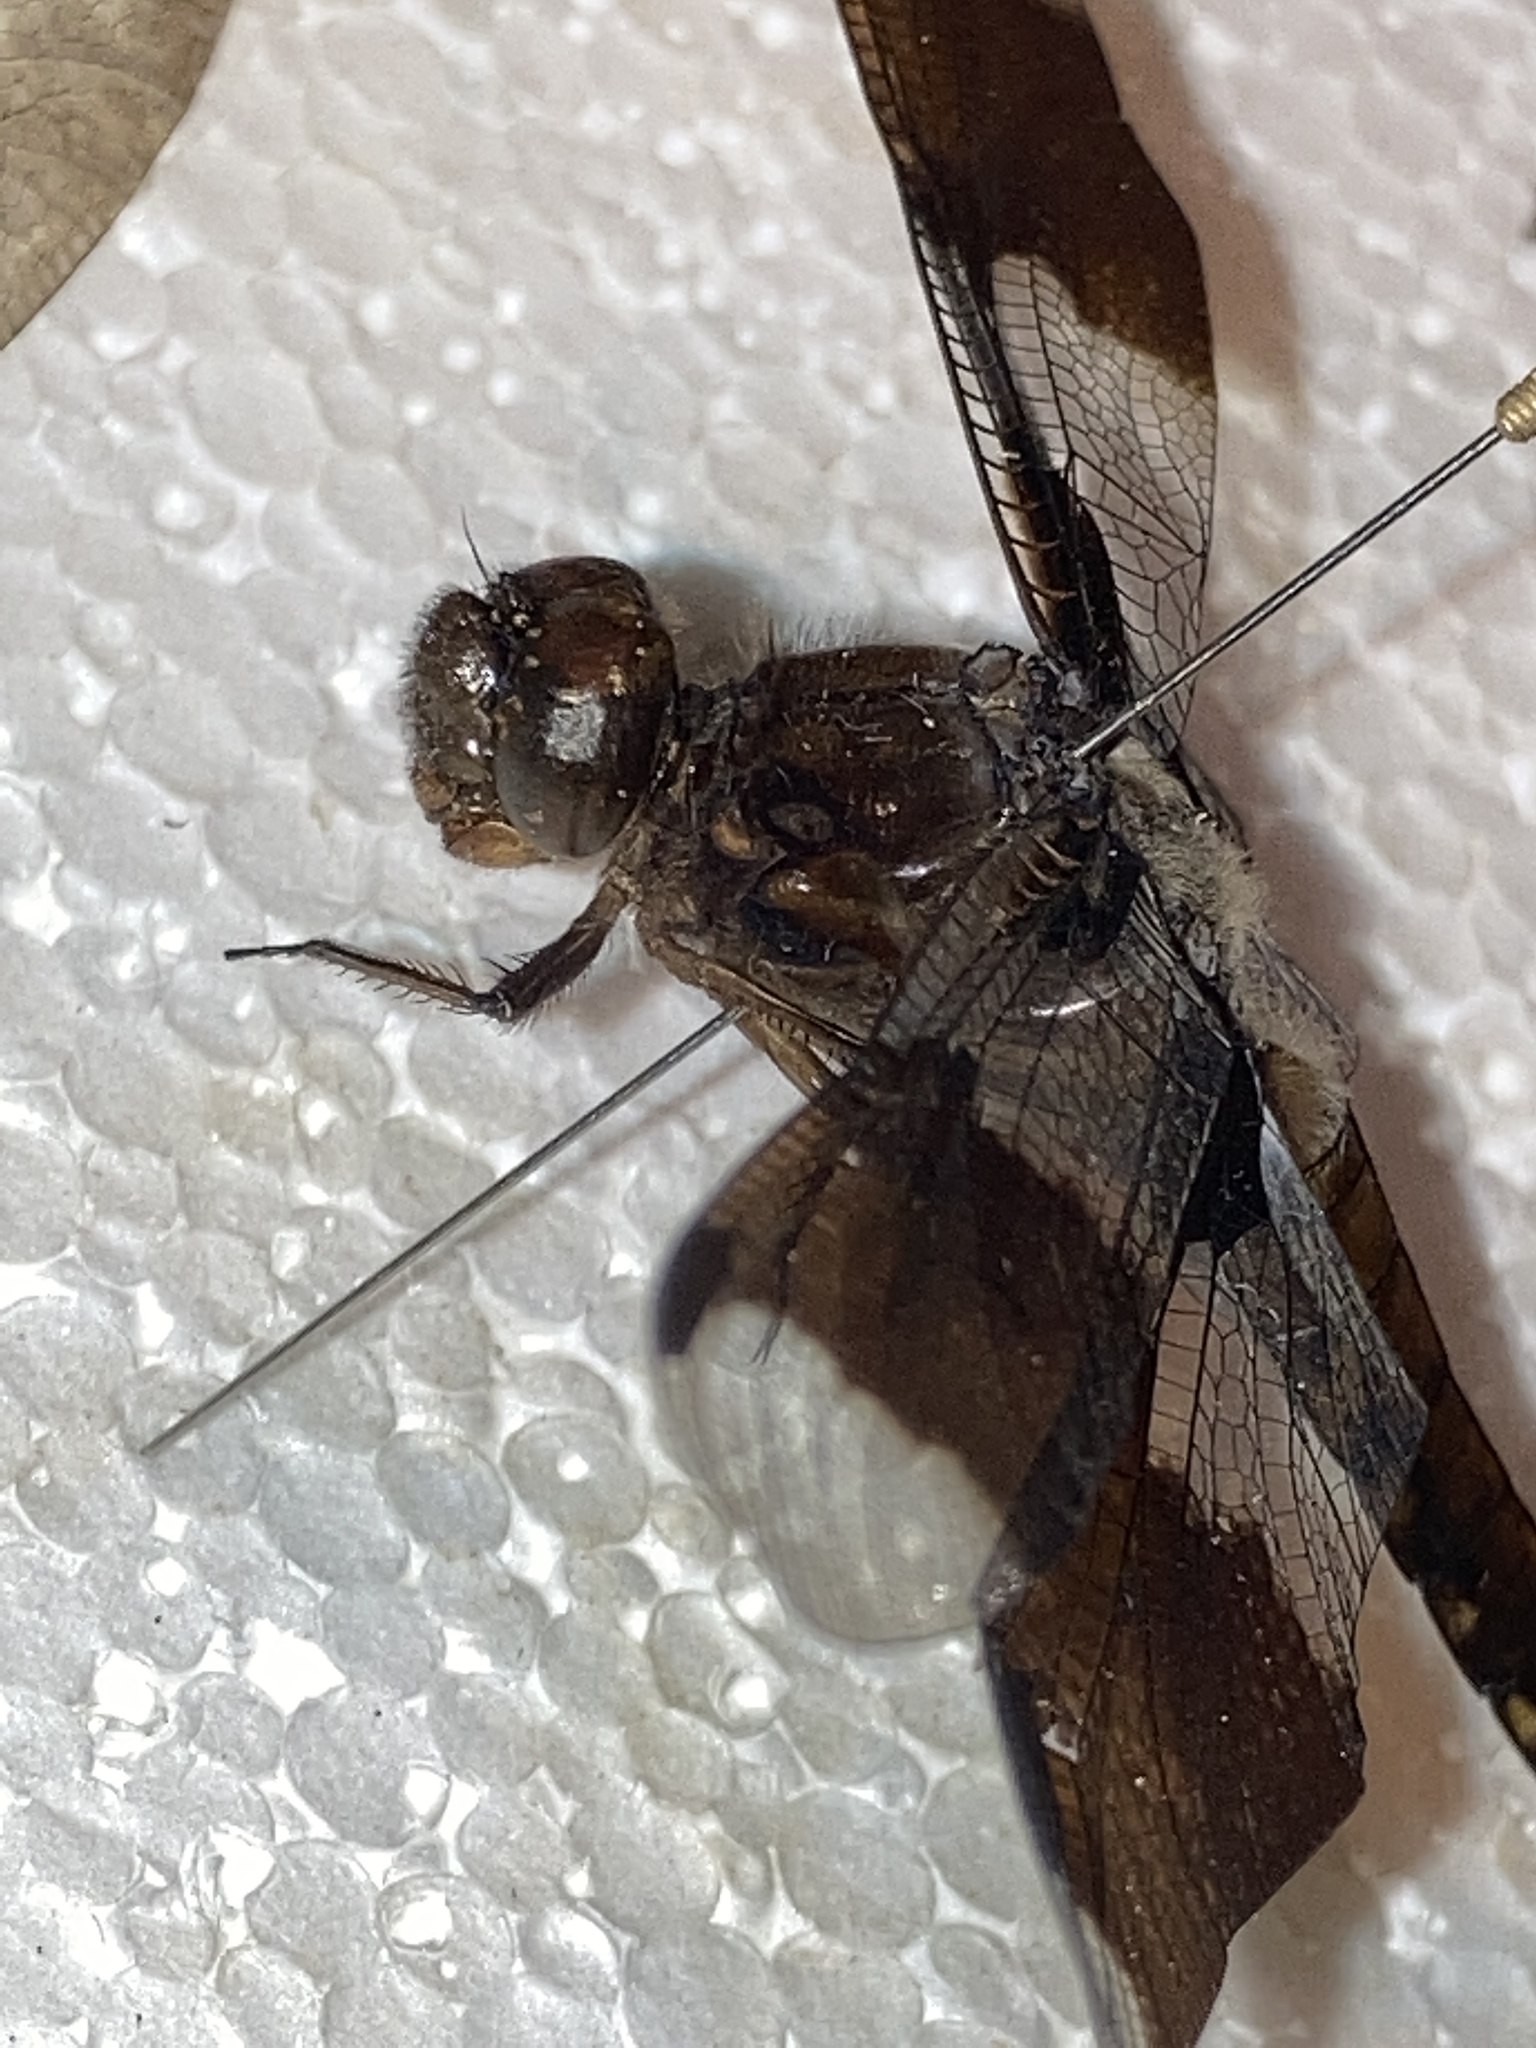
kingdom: Animalia
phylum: Arthropoda
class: Insecta
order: Odonata
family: Libellulidae
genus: Plathemis
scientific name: Plathemis lydia
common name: Common whitetail
